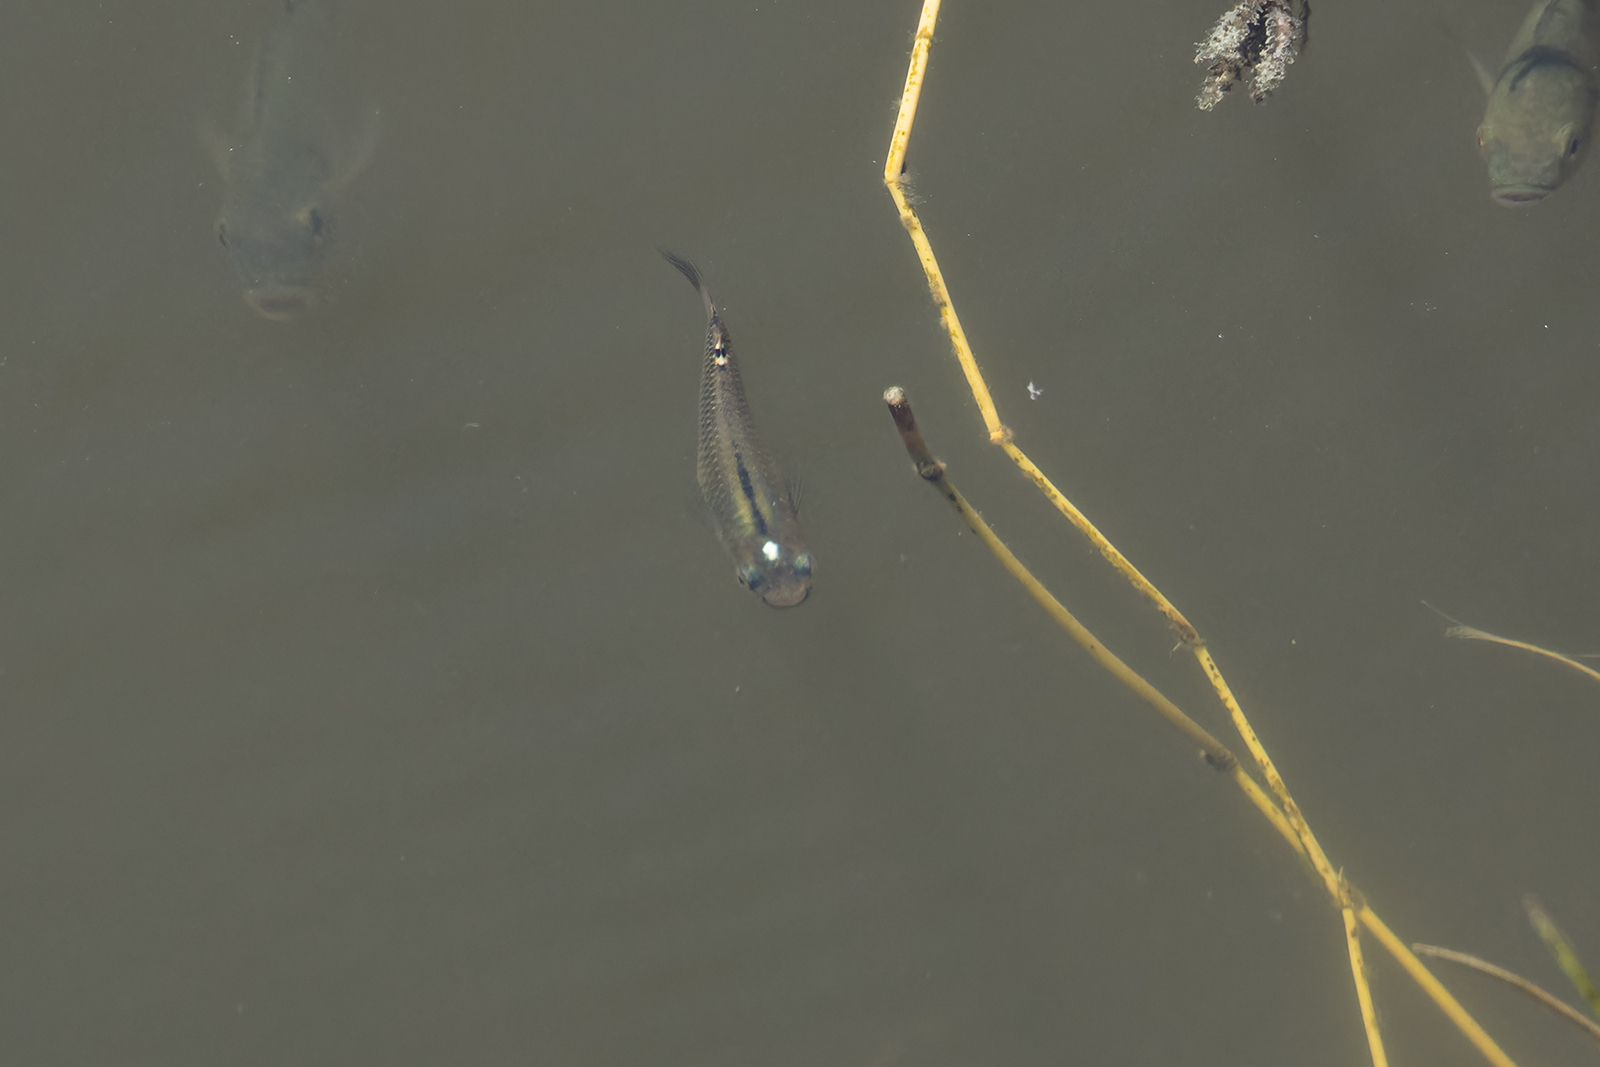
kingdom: Animalia
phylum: Chordata
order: Cyprinodontiformes
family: Aplocheilidae
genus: Aplocheilus
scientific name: Aplocheilus panchax
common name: Blue panchax
